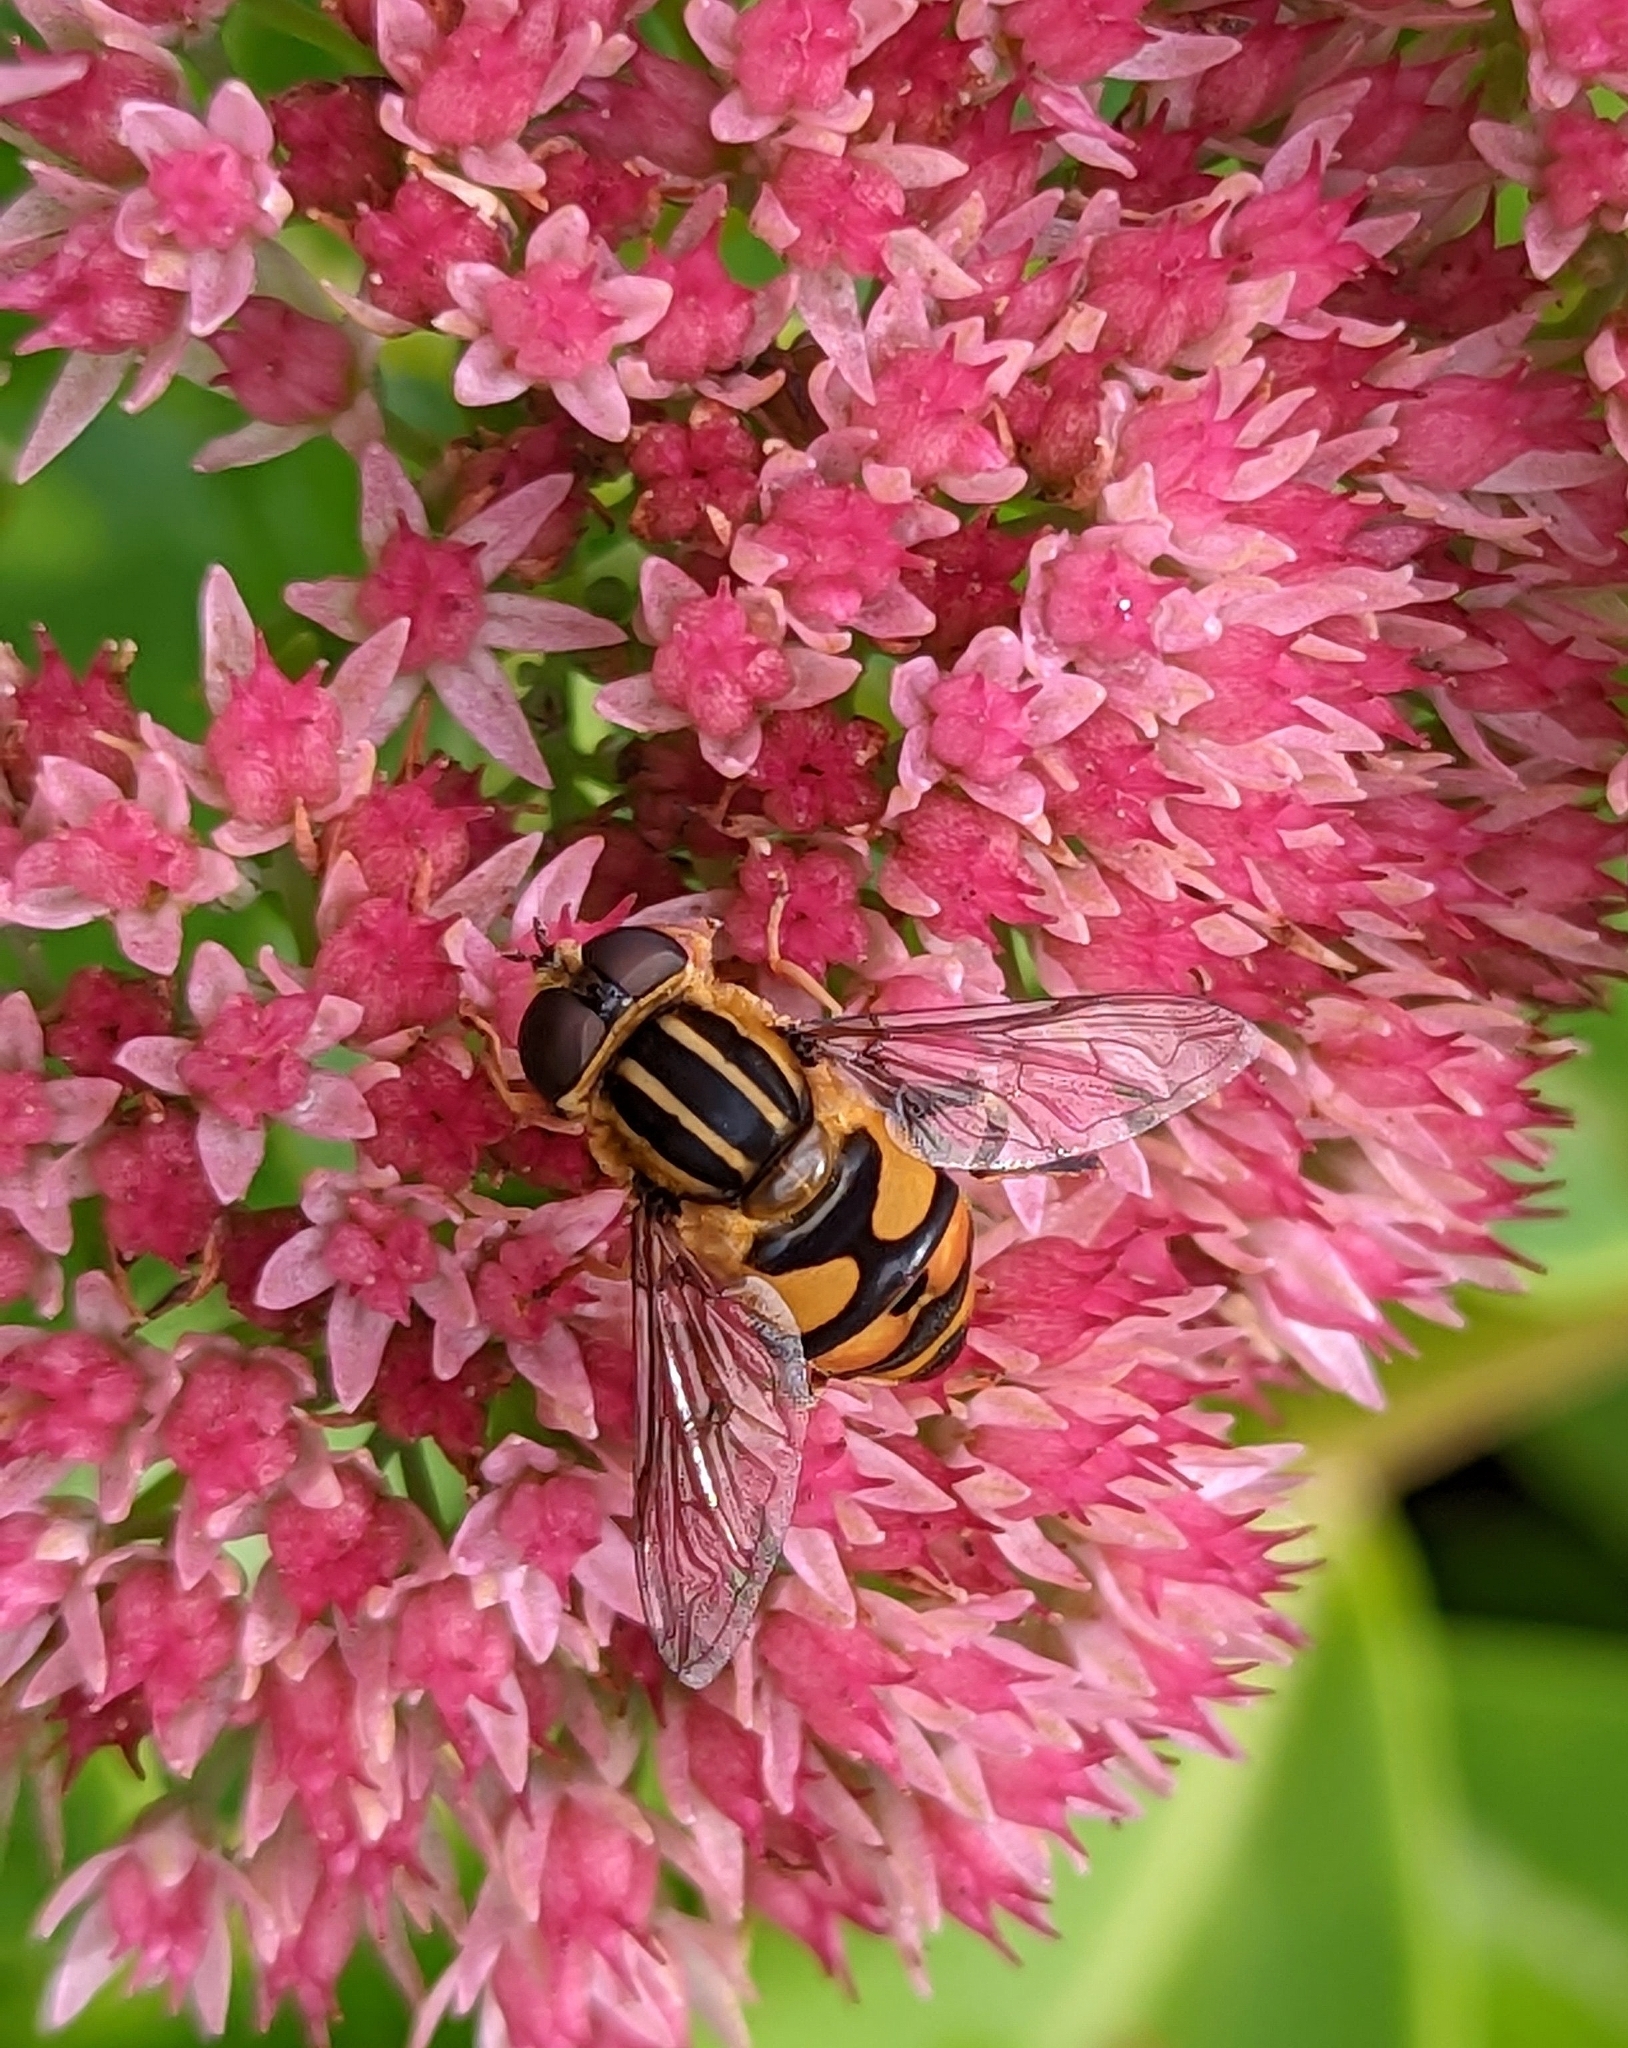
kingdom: Animalia
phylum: Arthropoda
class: Insecta
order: Diptera
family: Syrphidae
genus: Helophilus
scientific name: Helophilus fasciatus
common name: Narrow-headed marsh fly
